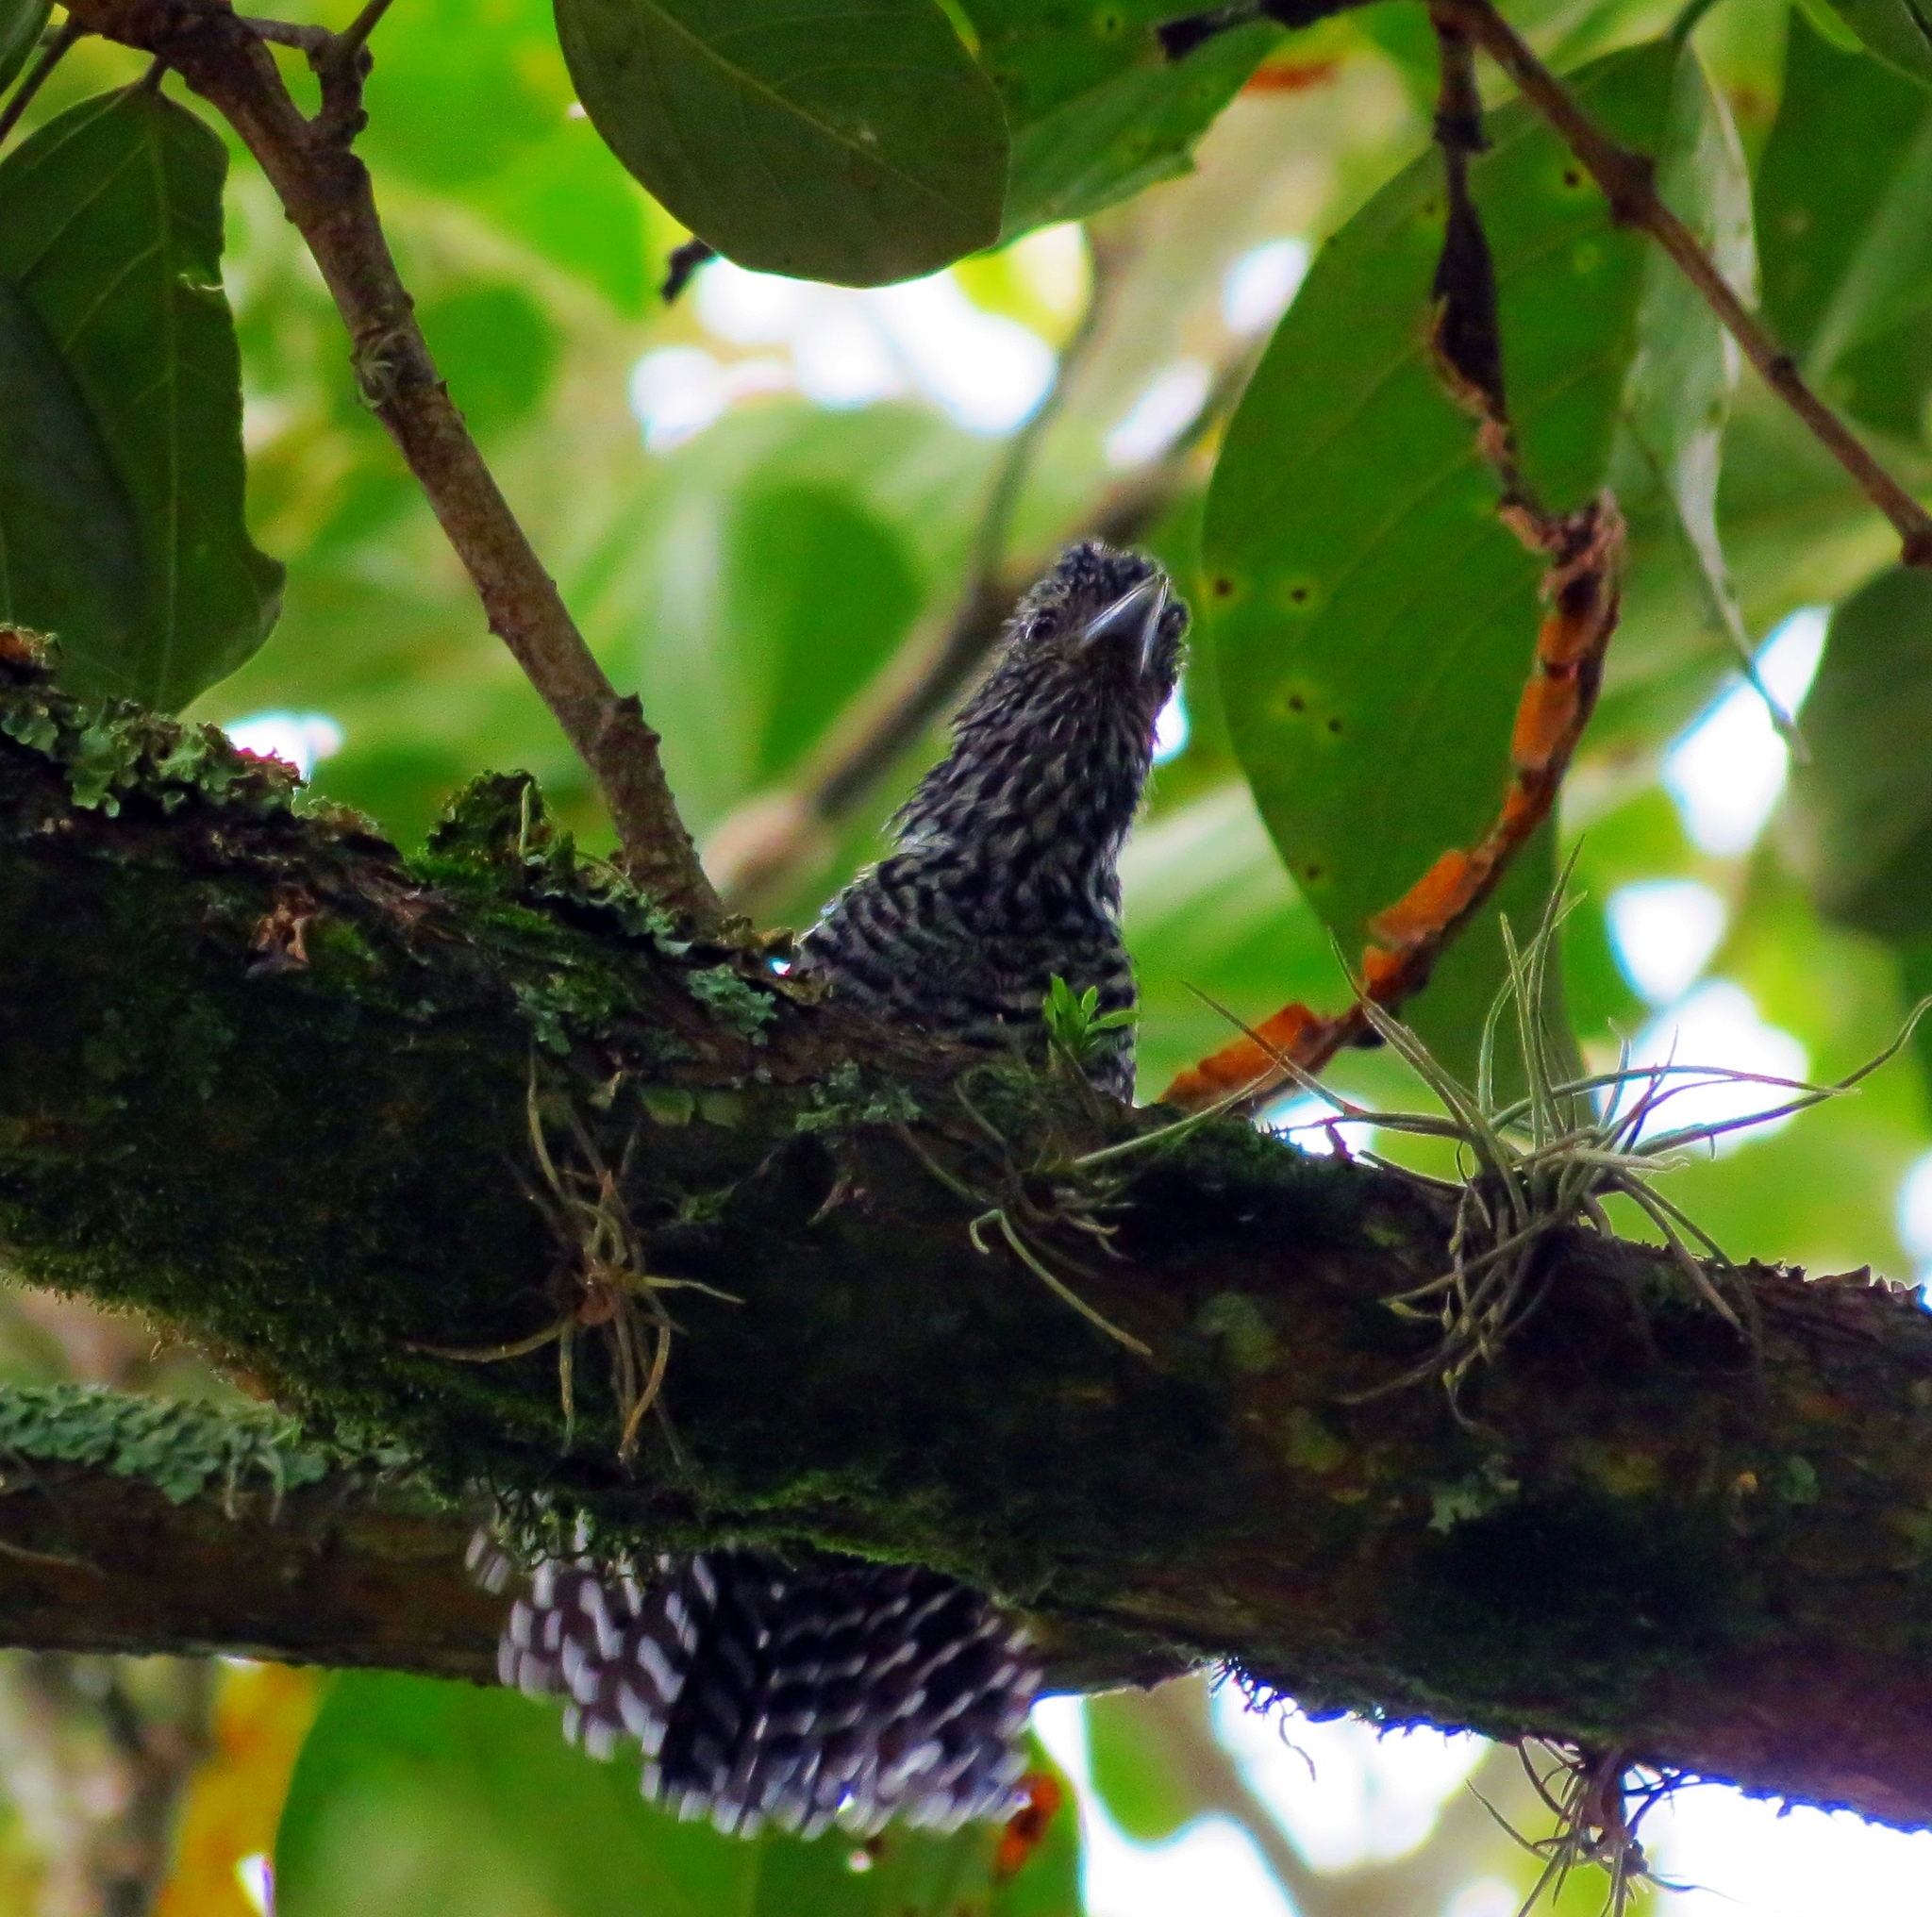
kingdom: Animalia
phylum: Chordata
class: Aves
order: Passeriformes
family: Thamnophilidae
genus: Thamnophilus
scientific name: Thamnophilus multistriatus
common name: Bar-crested antshrike
